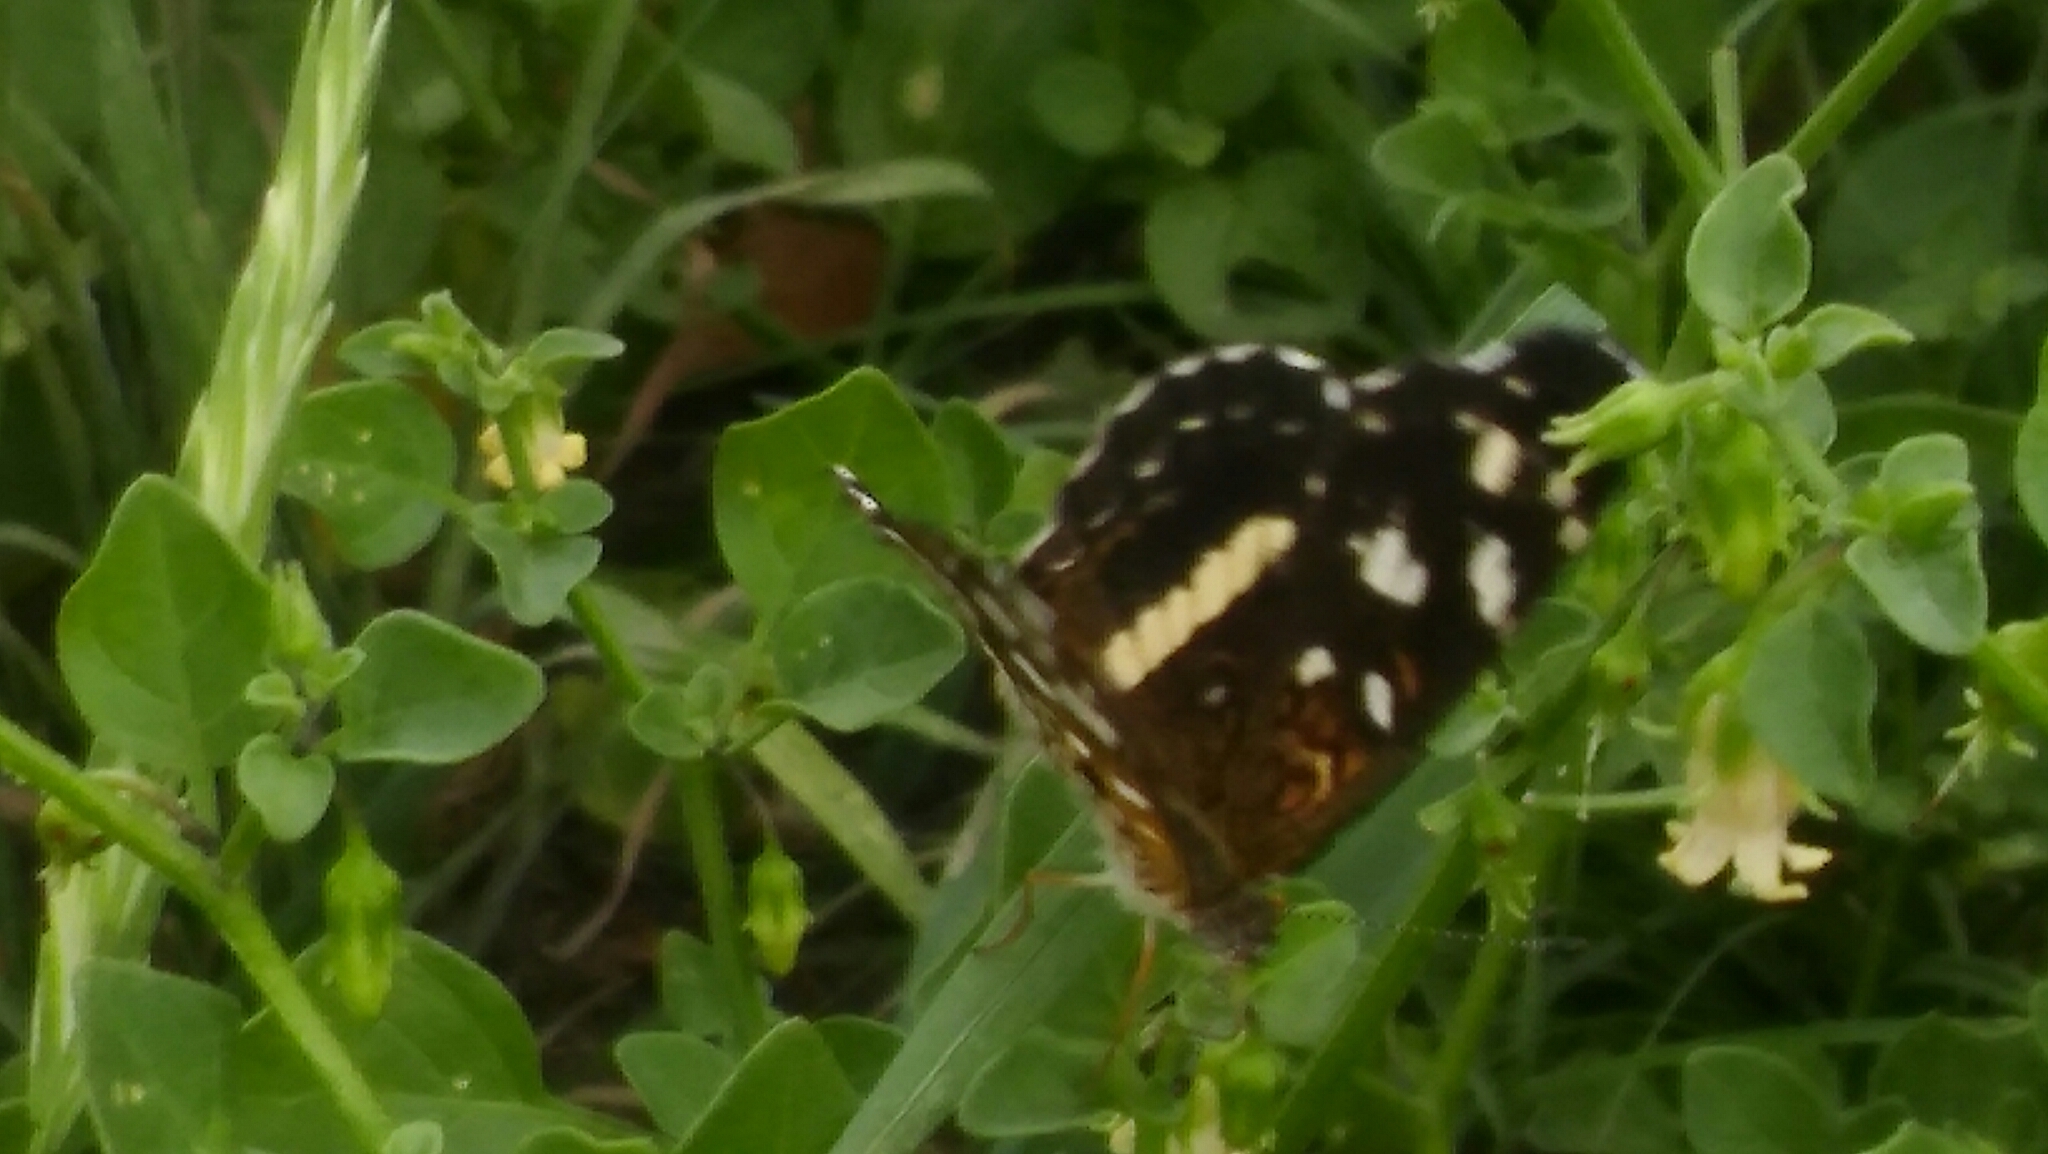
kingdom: Animalia
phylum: Arthropoda
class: Insecta
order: Lepidoptera
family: Nymphalidae
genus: Ortilia
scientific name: Ortilia ithra
